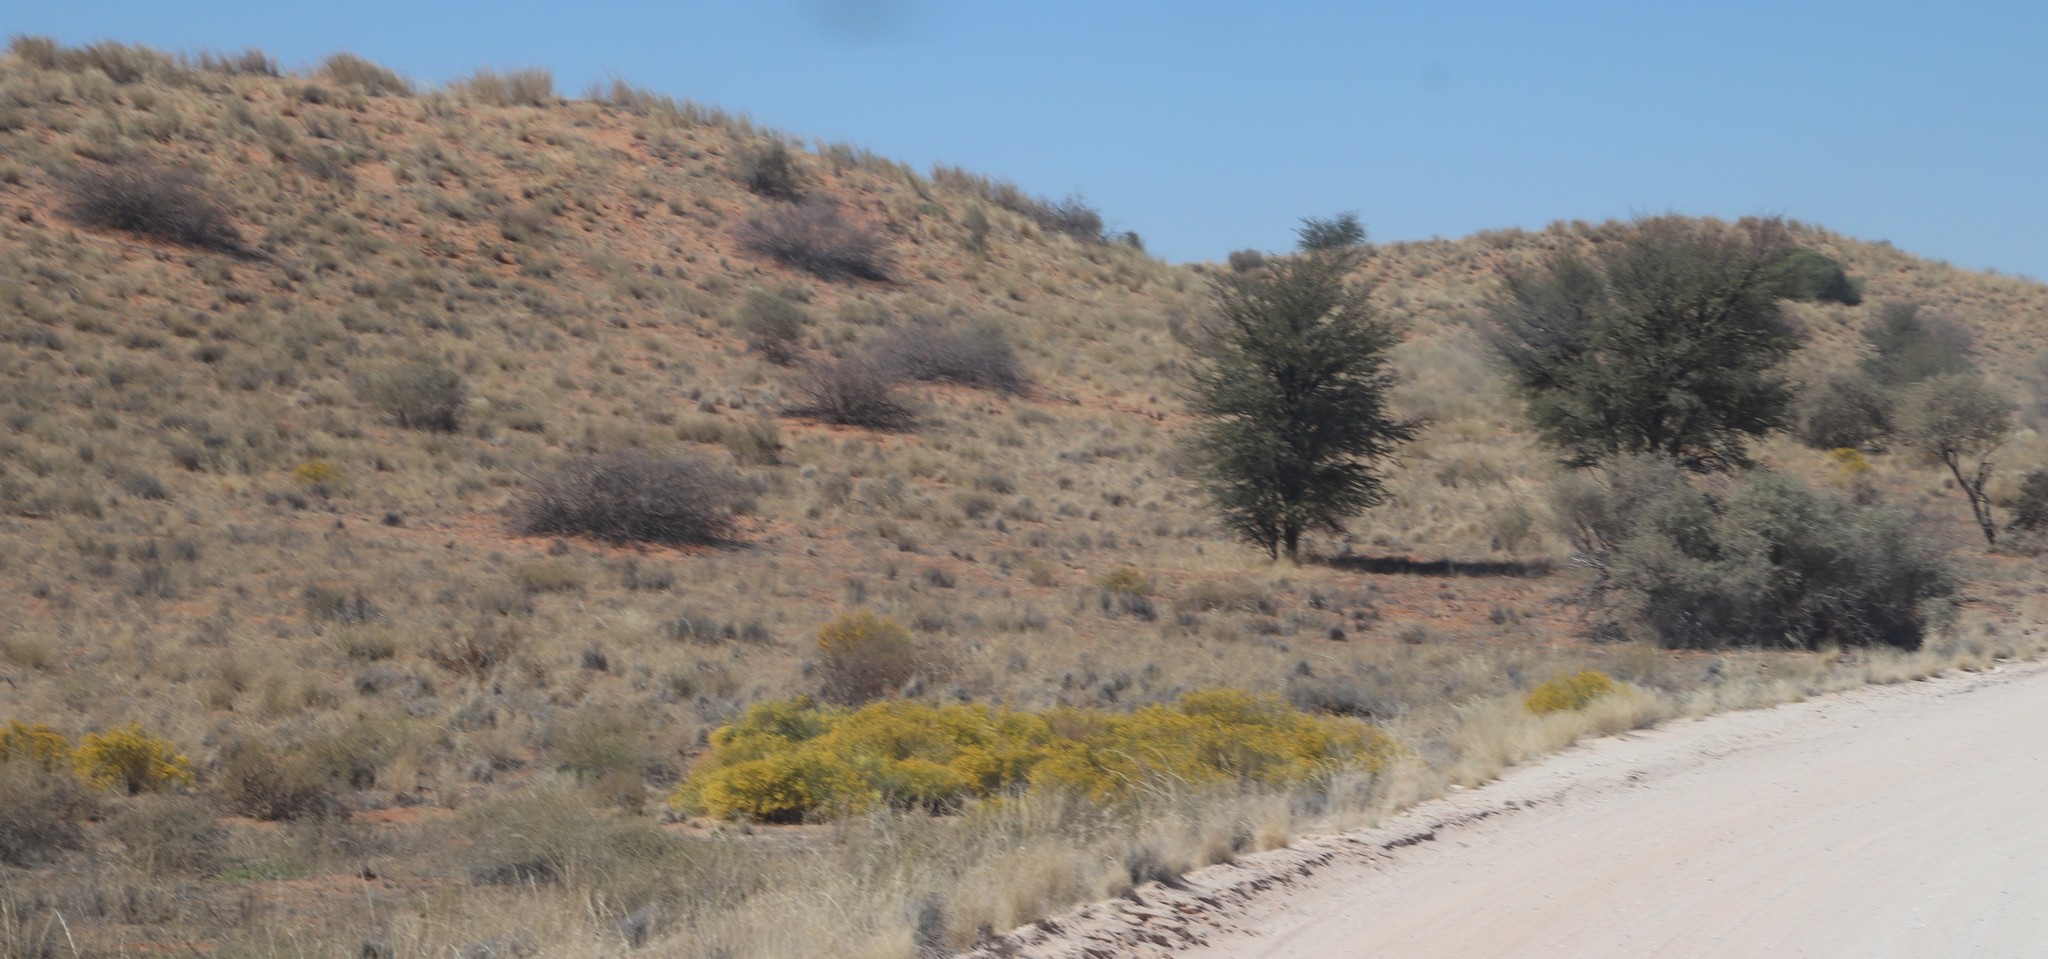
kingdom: Plantae
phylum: Tracheophyta
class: Magnoliopsida
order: Fabales
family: Fabaceae
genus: Senegalia
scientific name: Senegalia mellifera
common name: Hookthorn
